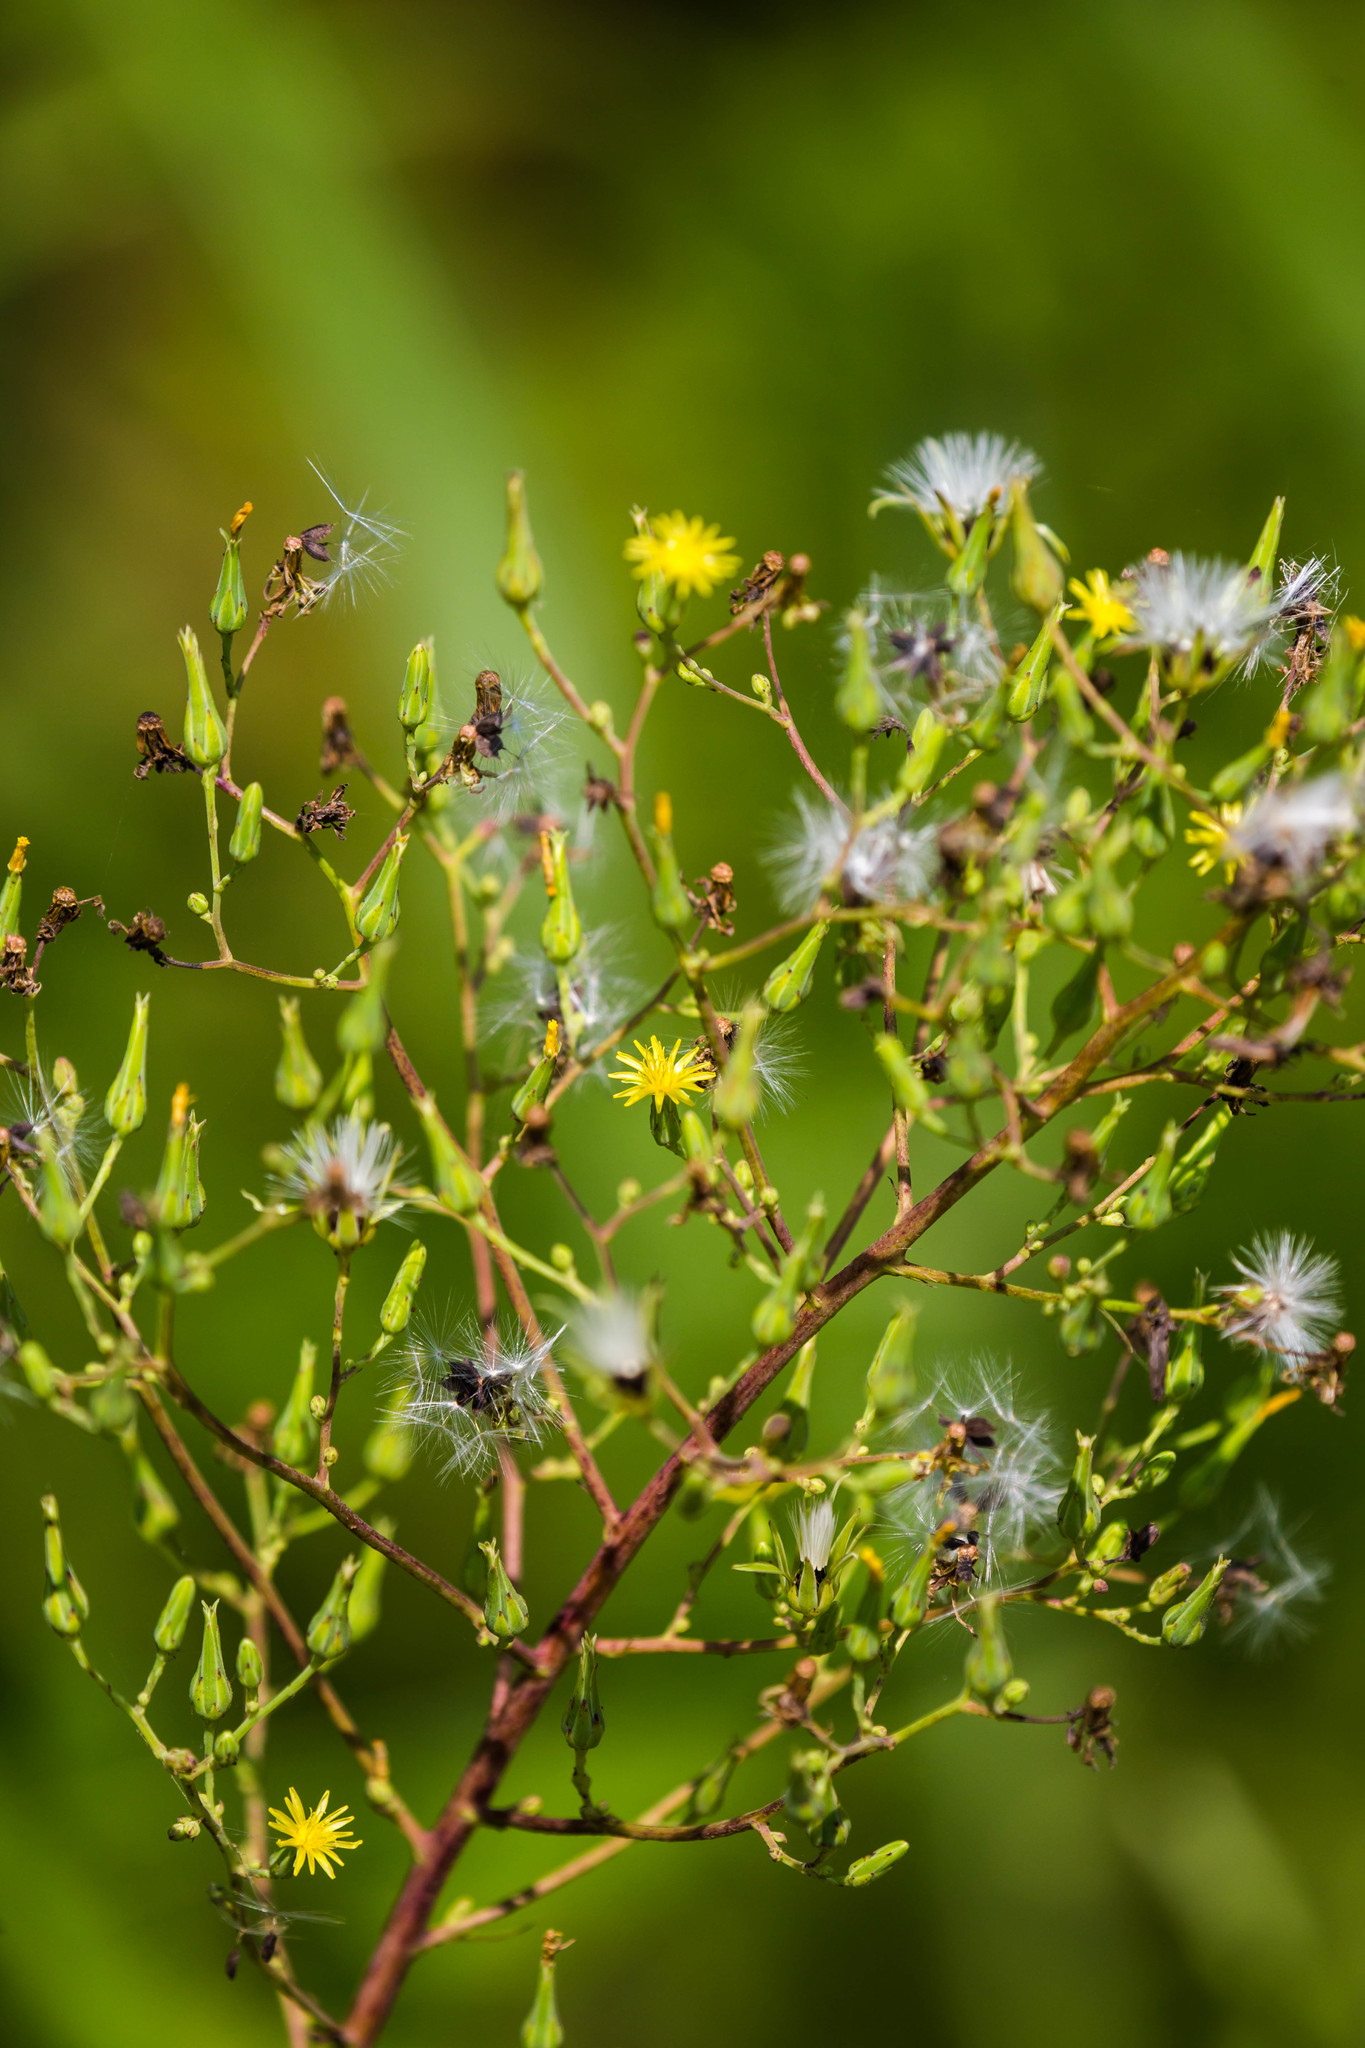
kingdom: Plantae
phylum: Tracheophyta
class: Magnoliopsida
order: Asterales
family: Asteraceae
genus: Lactuca
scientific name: Lactuca canadensis
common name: Canada lettuce
